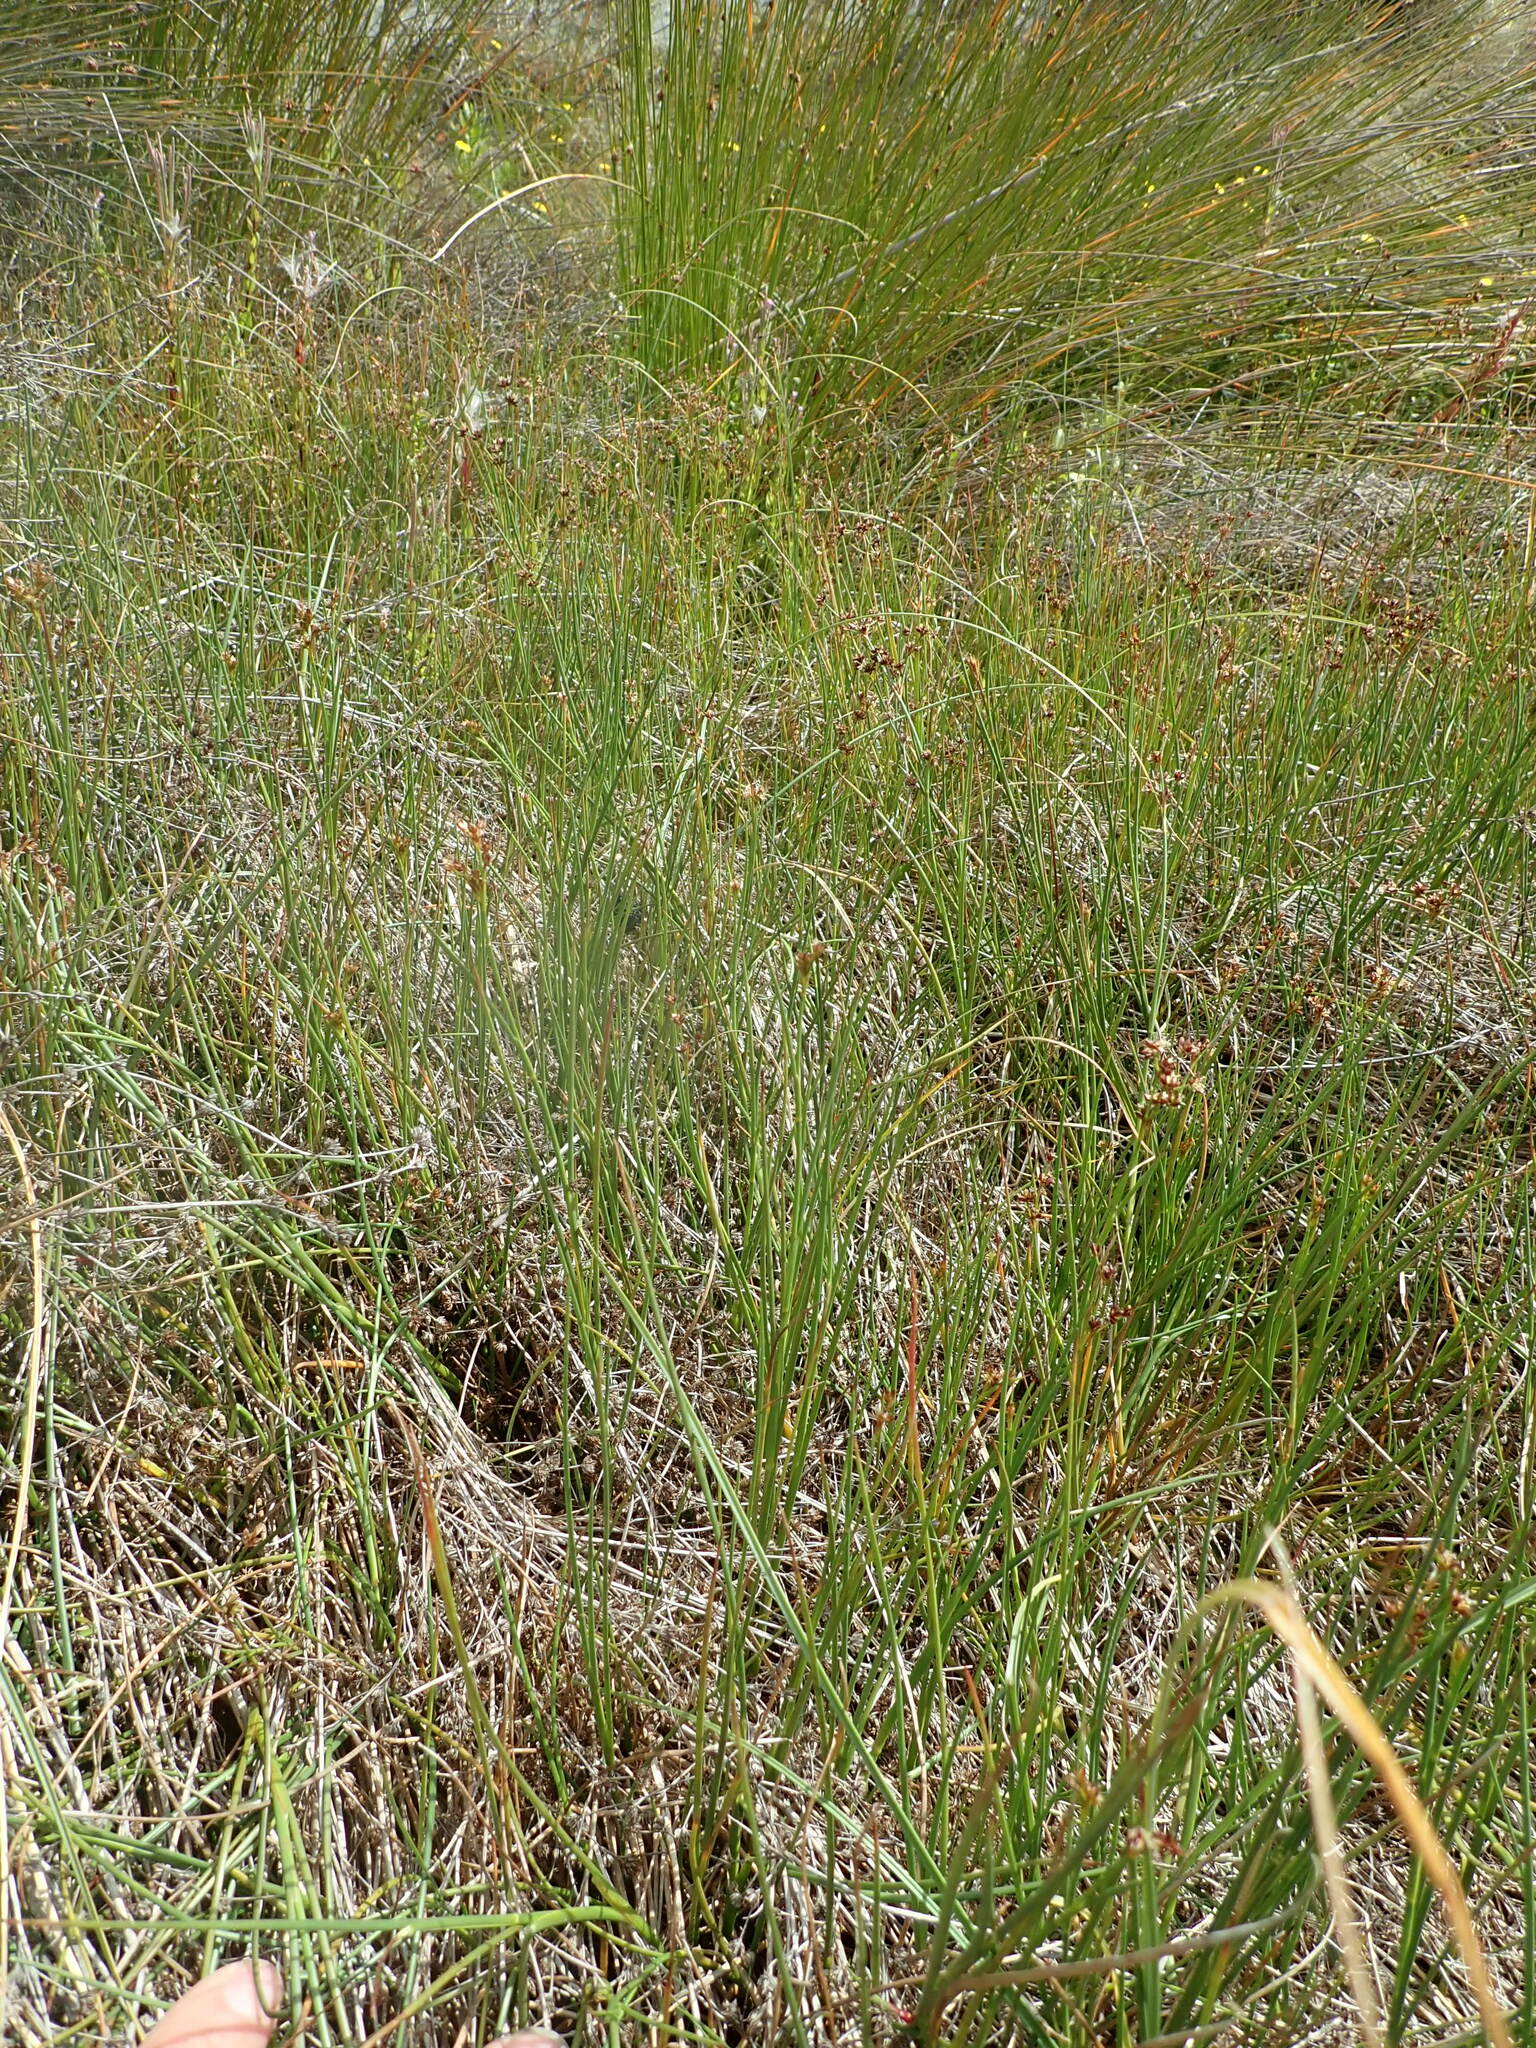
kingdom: Plantae
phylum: Tracheophyta
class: Liliopsida
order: Poales
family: Juncaceae
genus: Juncus
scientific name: Juncus articulatus
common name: Jointed rush
